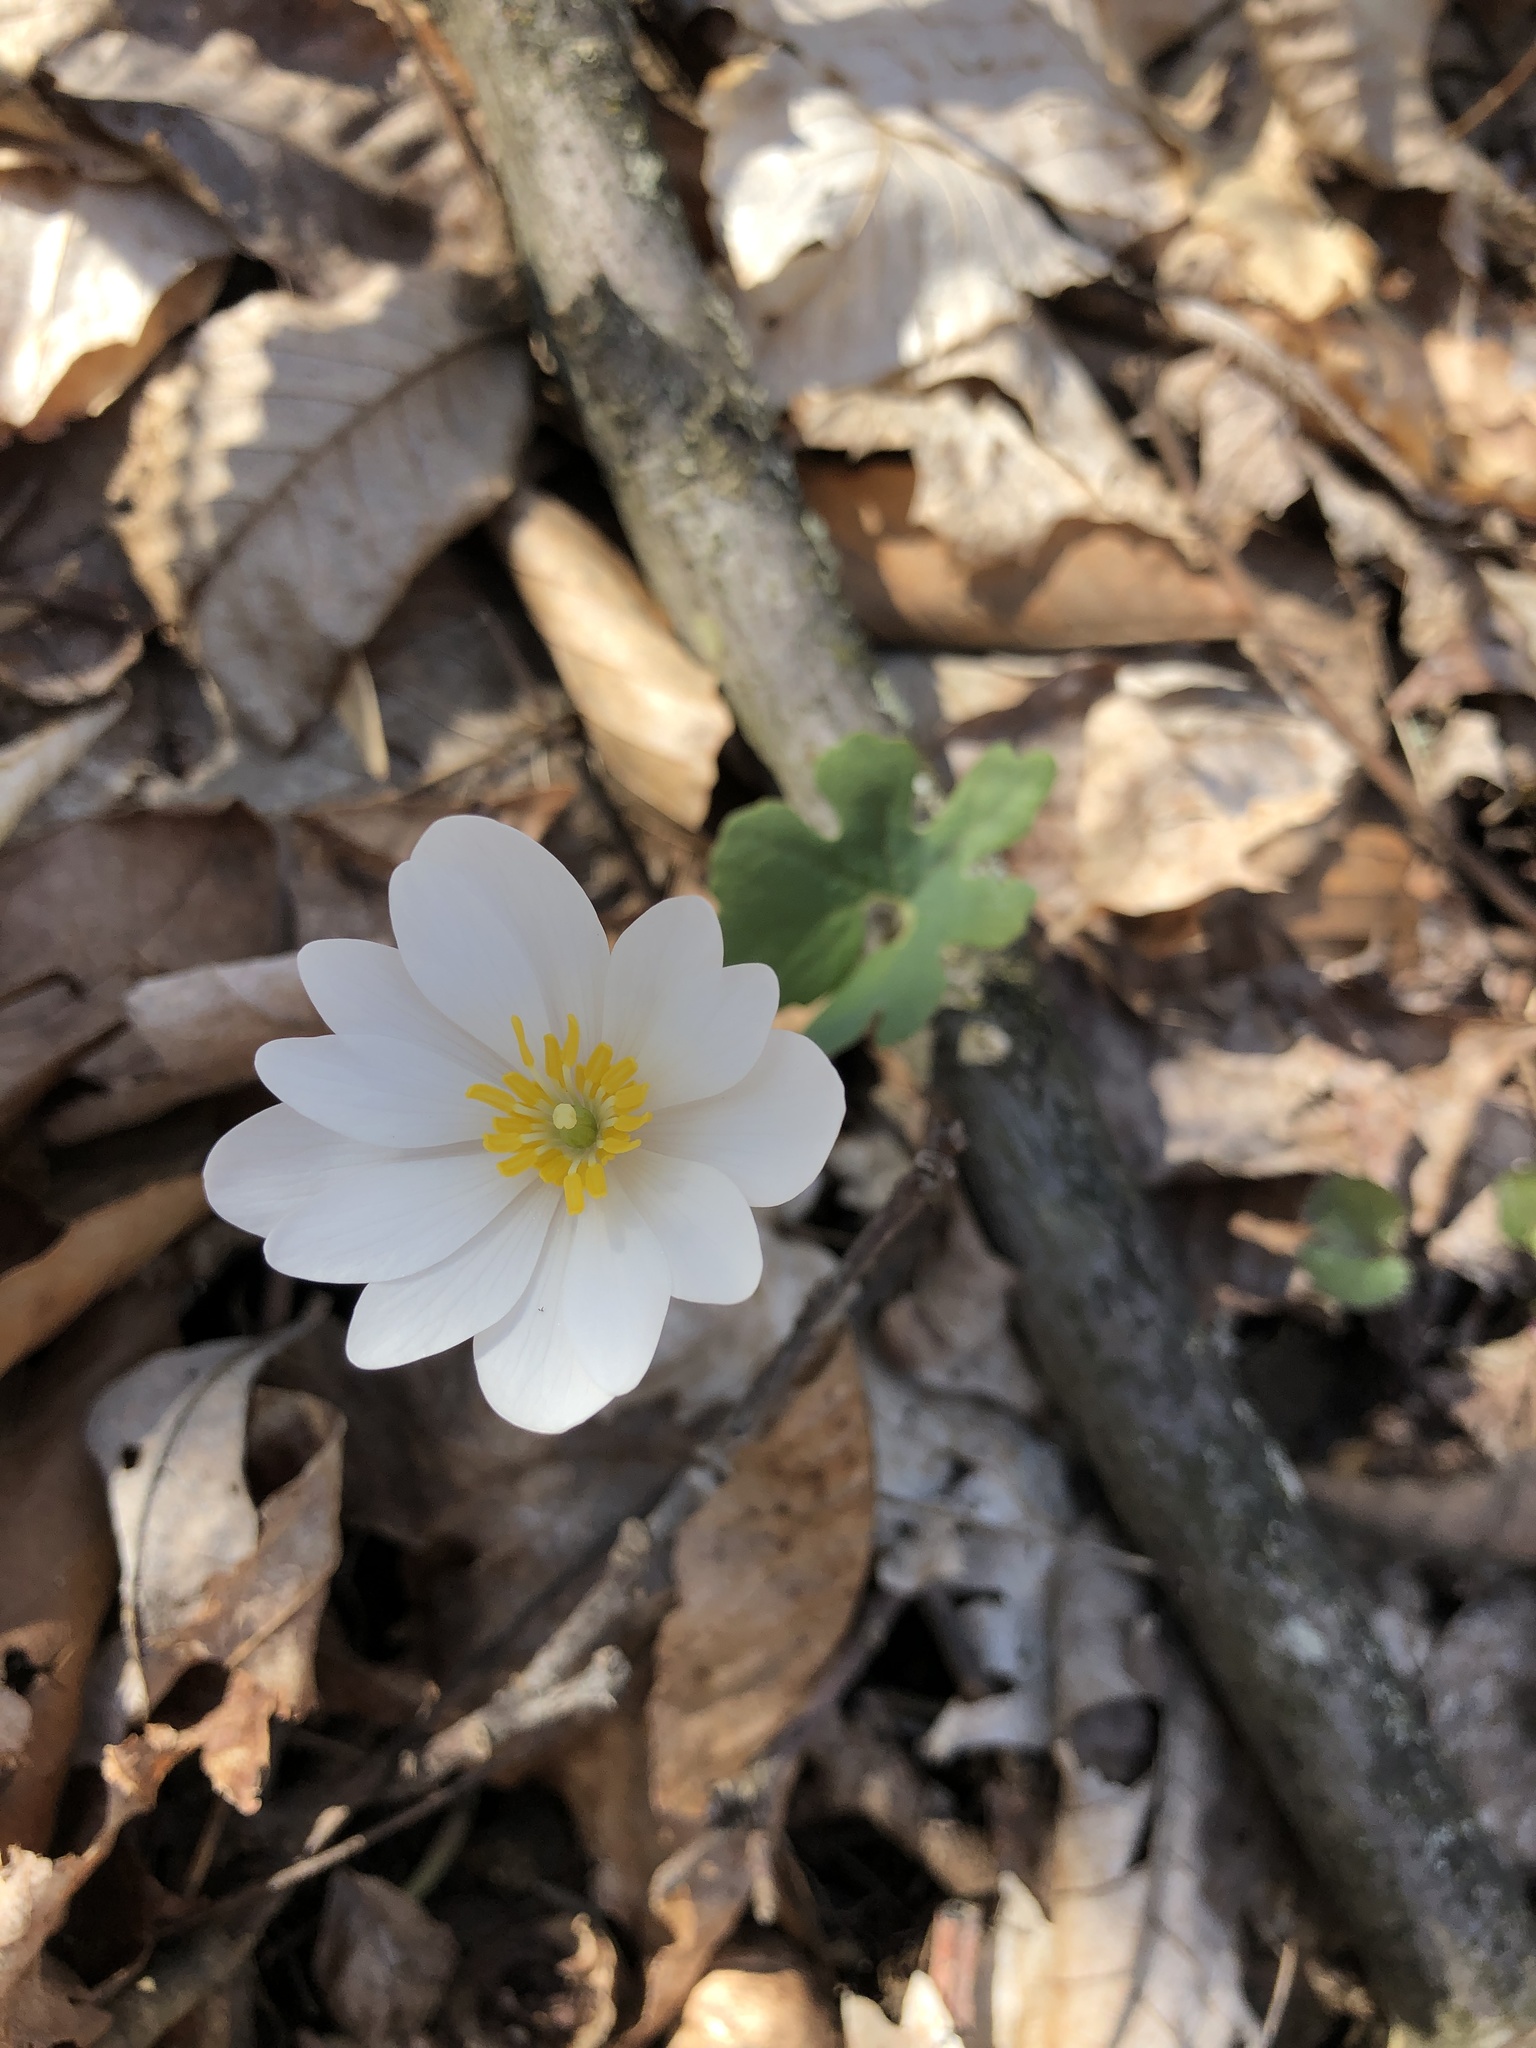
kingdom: Plantae
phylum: Tracheophyta
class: Magnoliopsida
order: Ranunculales
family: Papaveraceae
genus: Sanguinaria
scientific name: Sanguinaria canadensis
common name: Bloodroot
